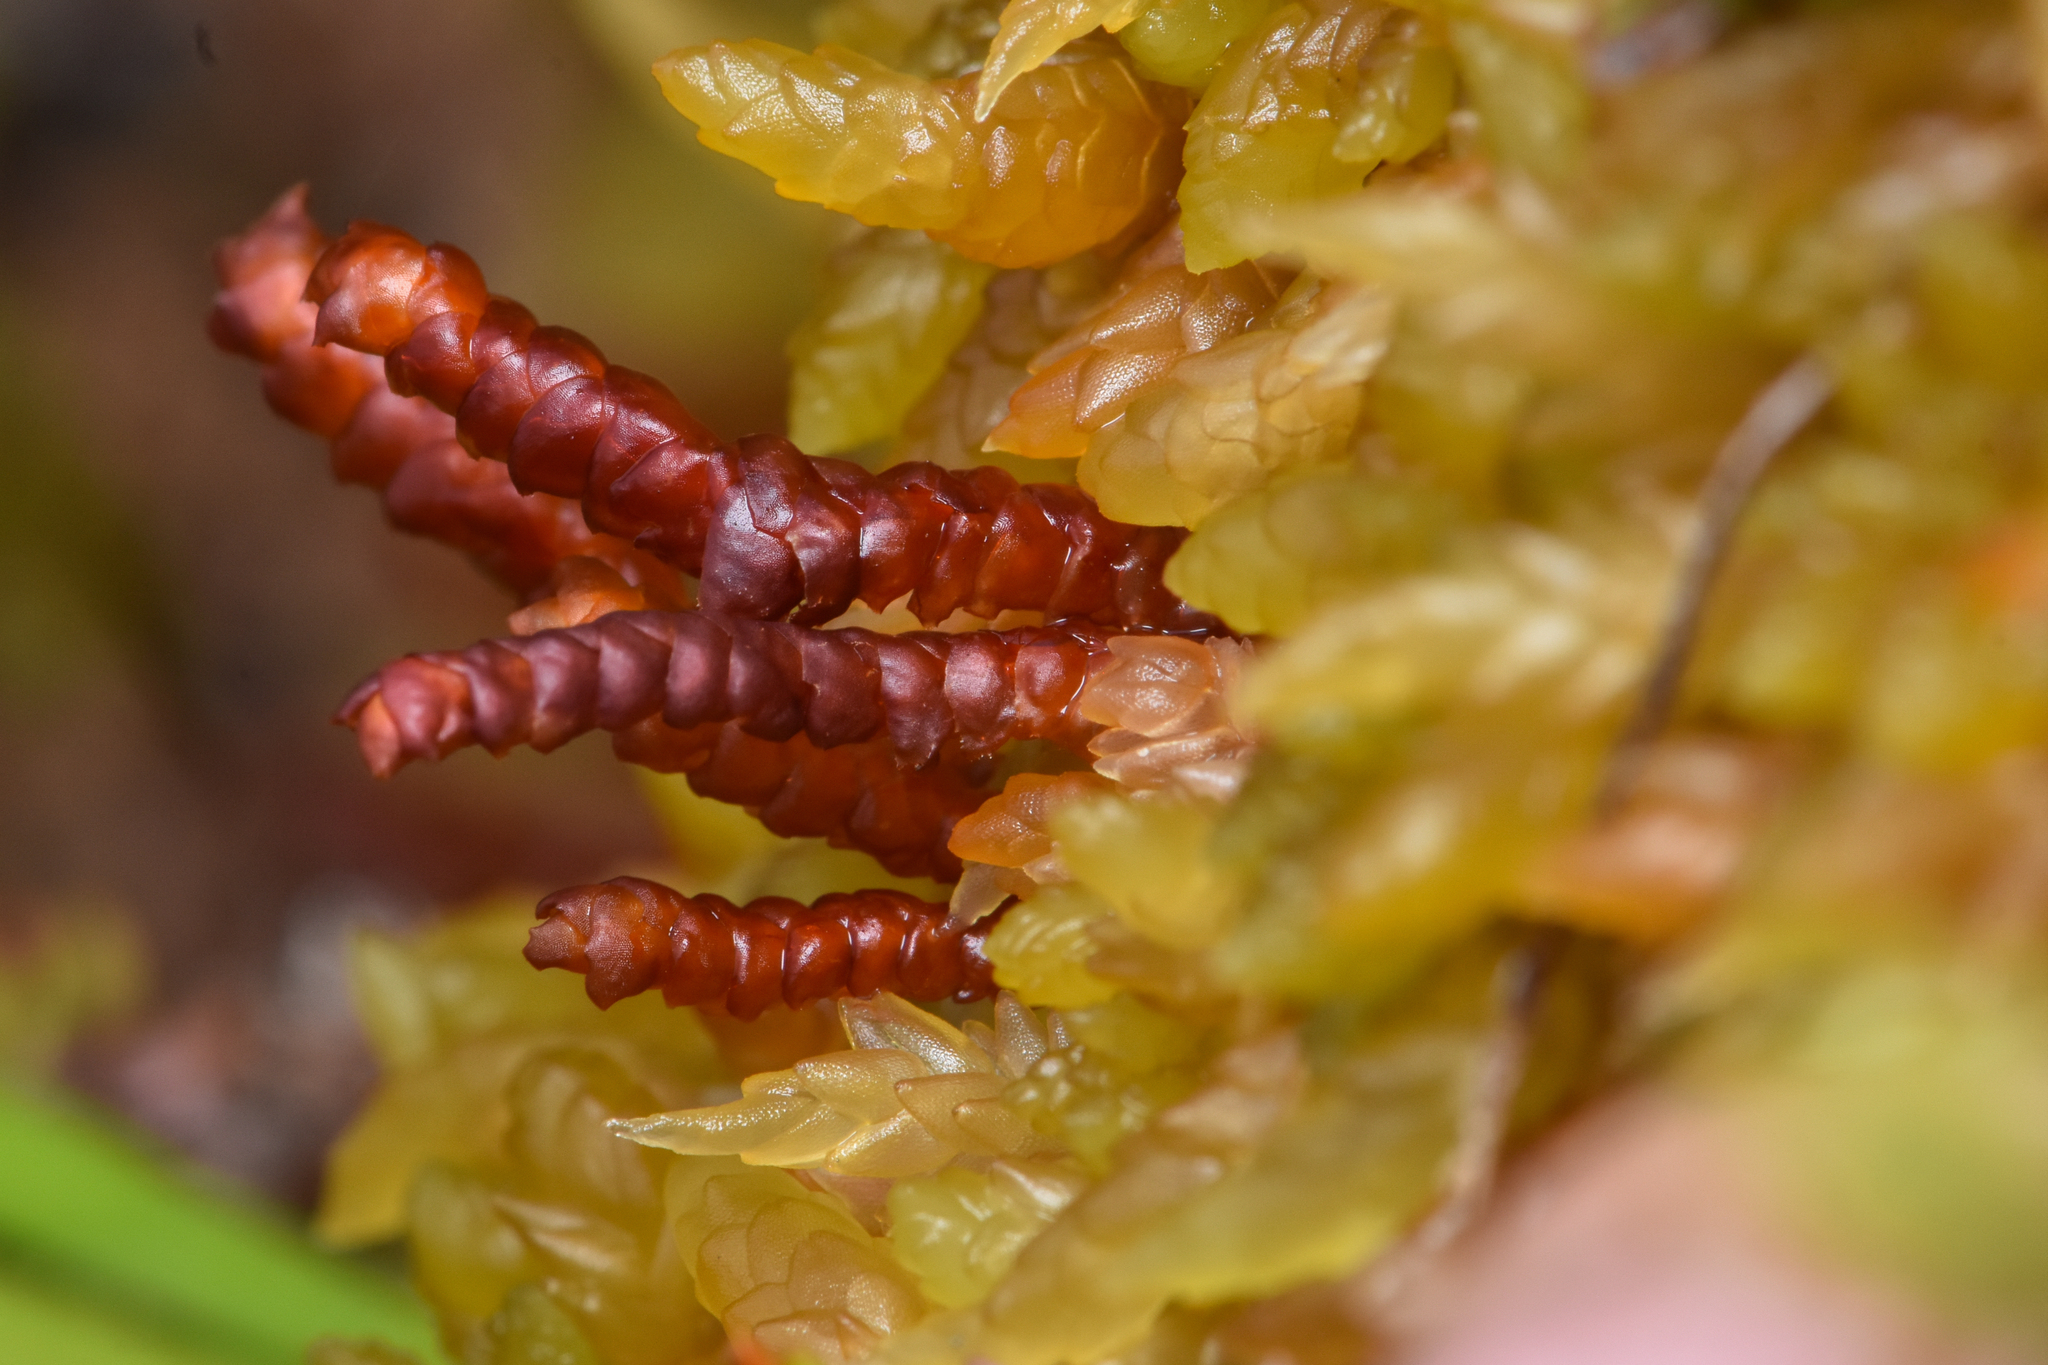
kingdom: Plantae
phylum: Marchantiophyta
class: Jungermanniopsida
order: Pleuroziales
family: Pleuroziaceae
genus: Pleurozia
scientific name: Pleurozia purpurea
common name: Purple spoonwort
